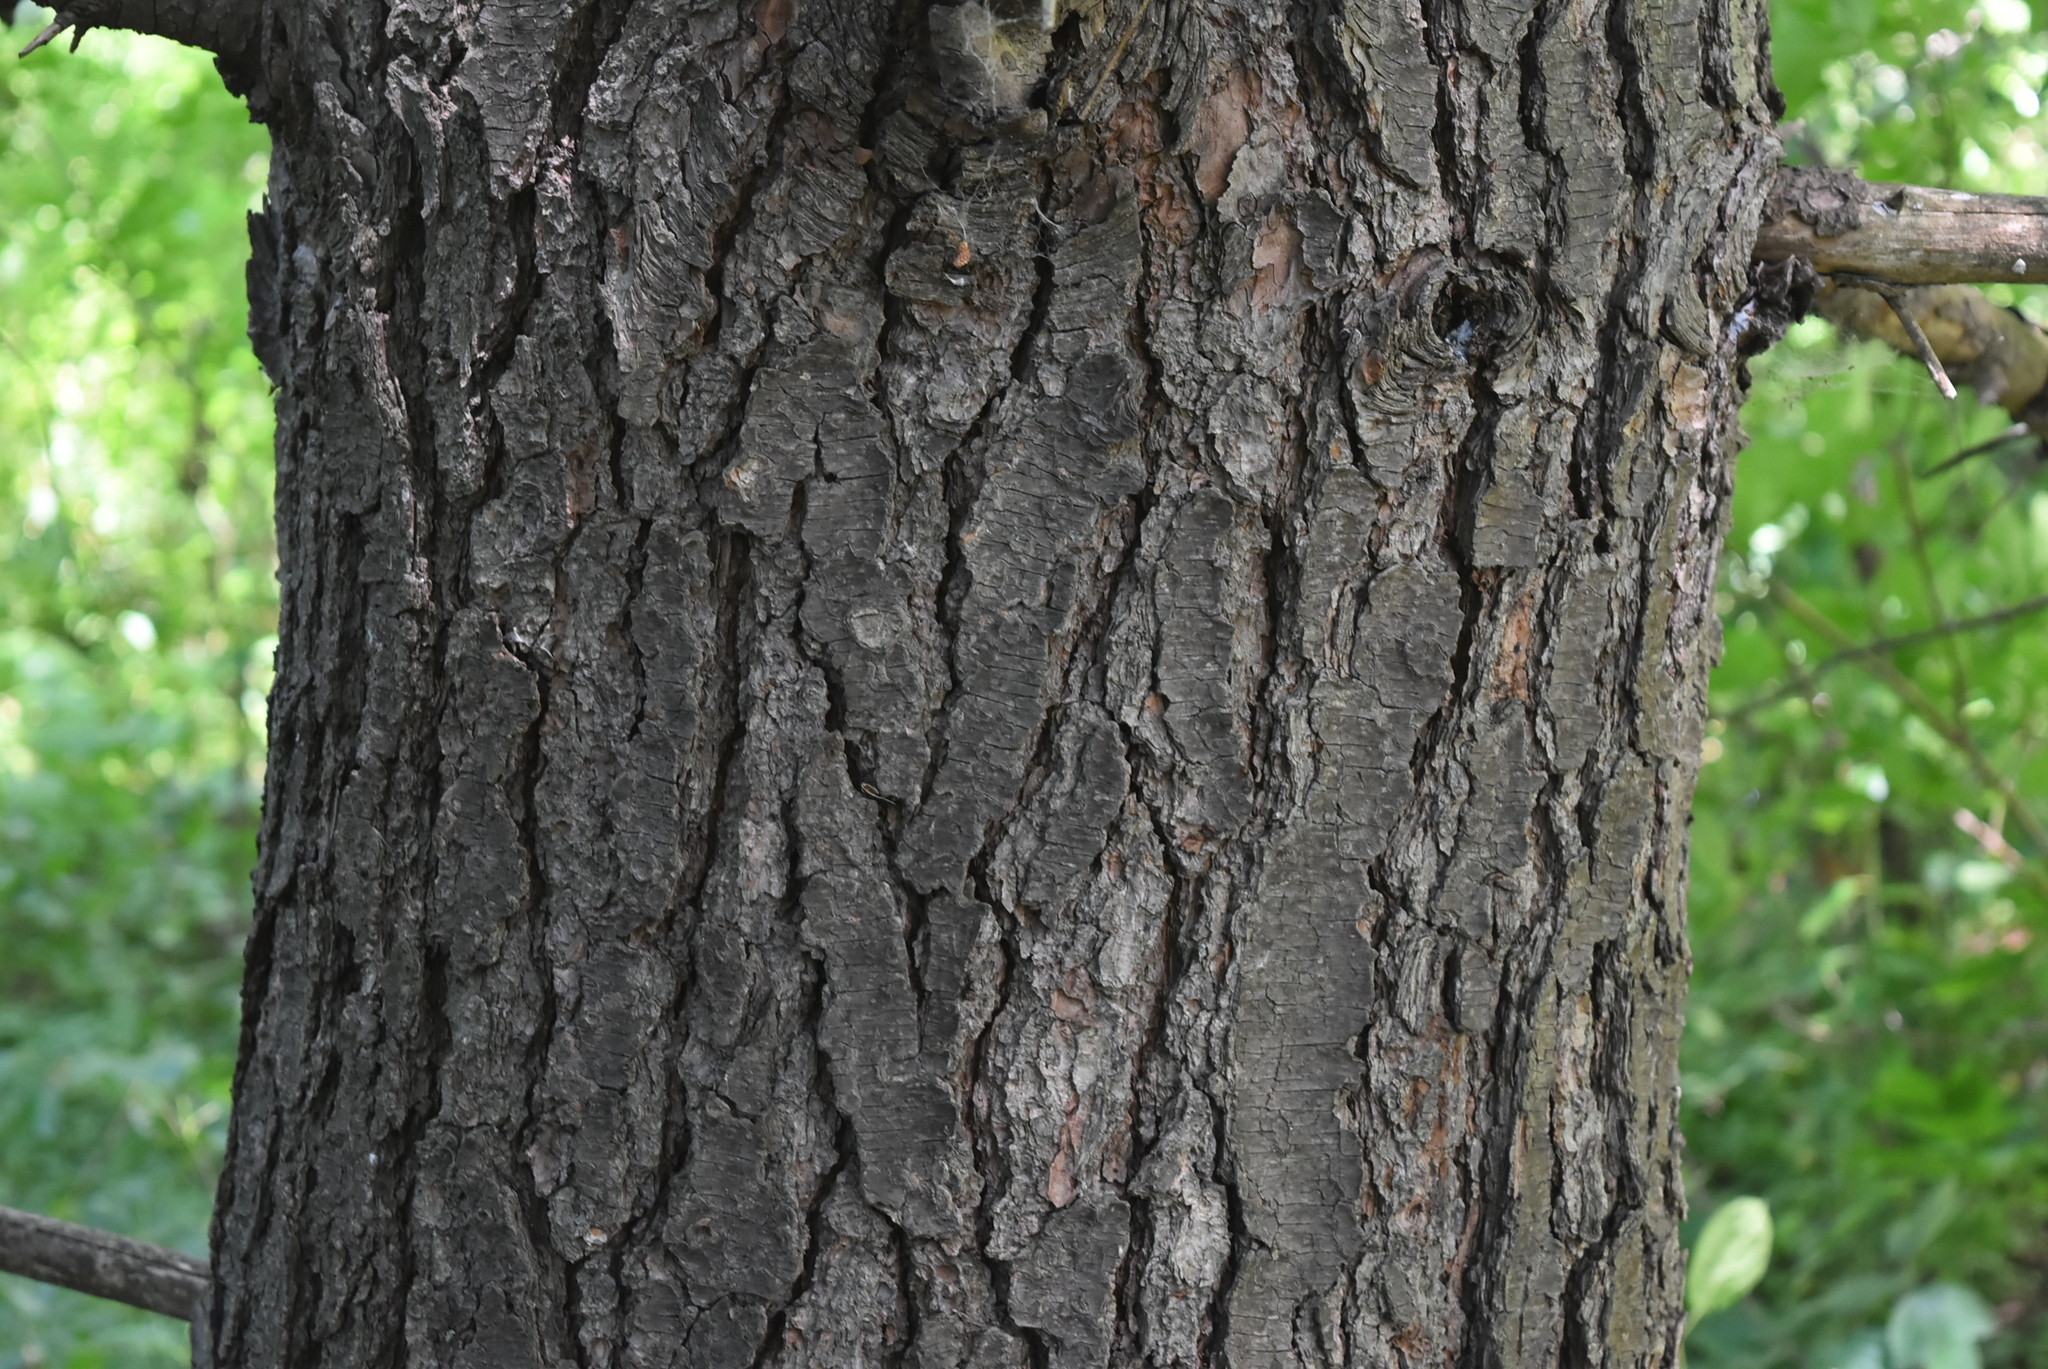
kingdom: Plantae
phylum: Tracheophyta
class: Pinopsida
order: Pinales
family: Pinaceae
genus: Pinus
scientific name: Pinus strobus
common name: Weymouth pine
